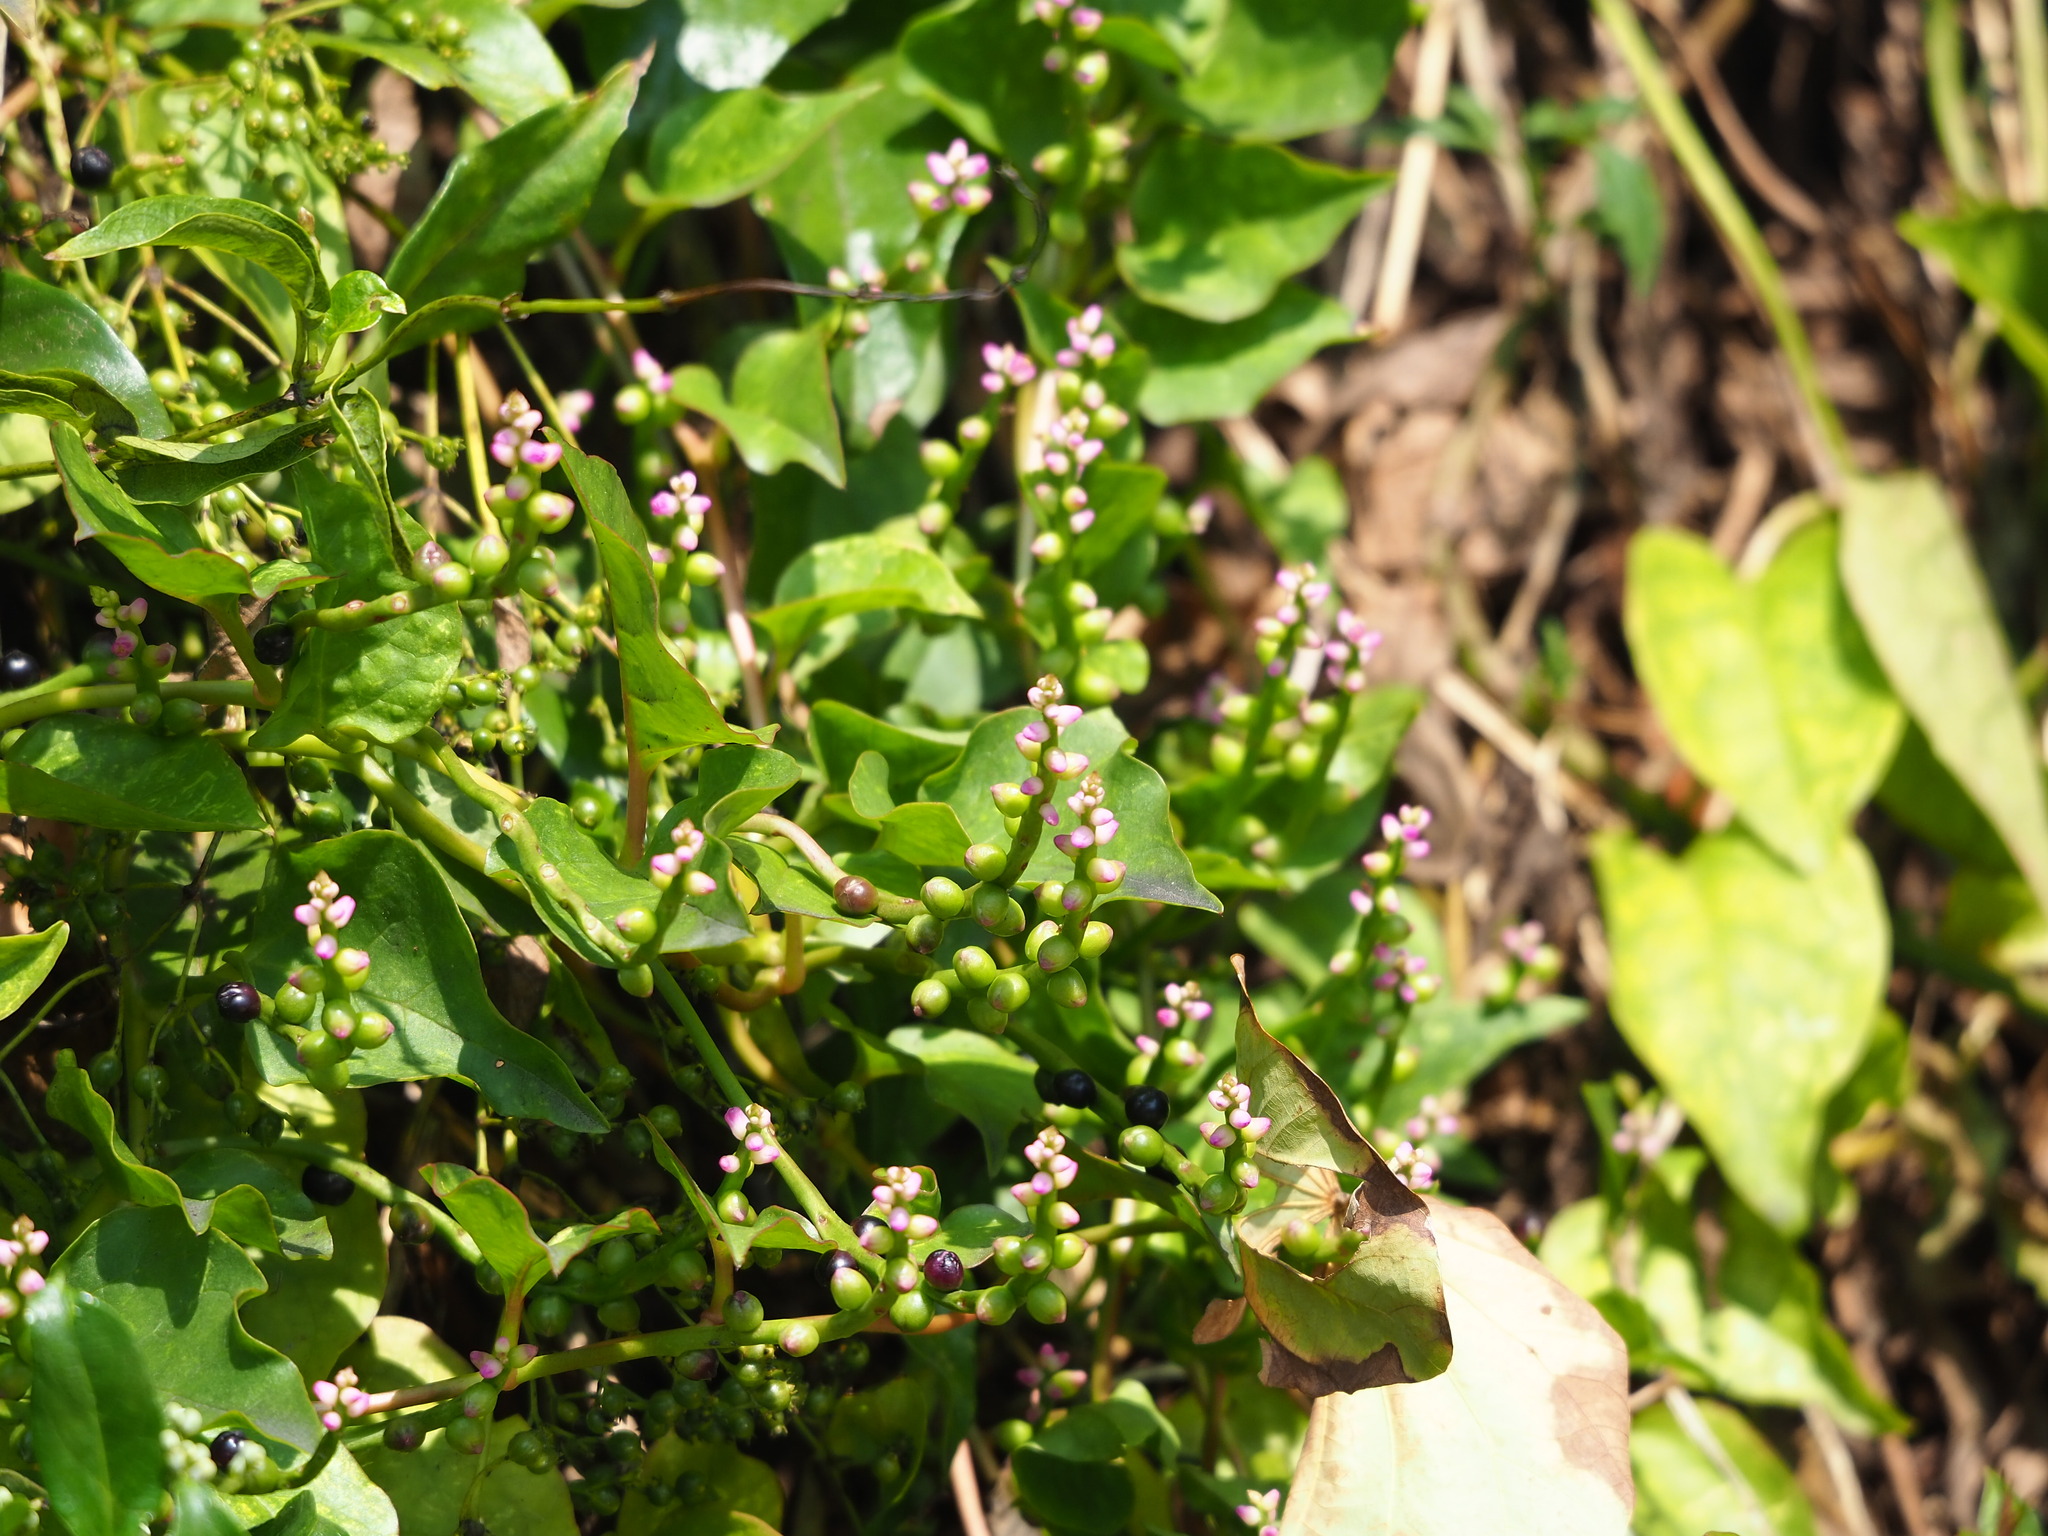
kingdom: Plantae
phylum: Tracheophyta
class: Magnoliopsida
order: Caryophyllales
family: Basellaceae
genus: Basella
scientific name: Basella alba
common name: Indian spinach
